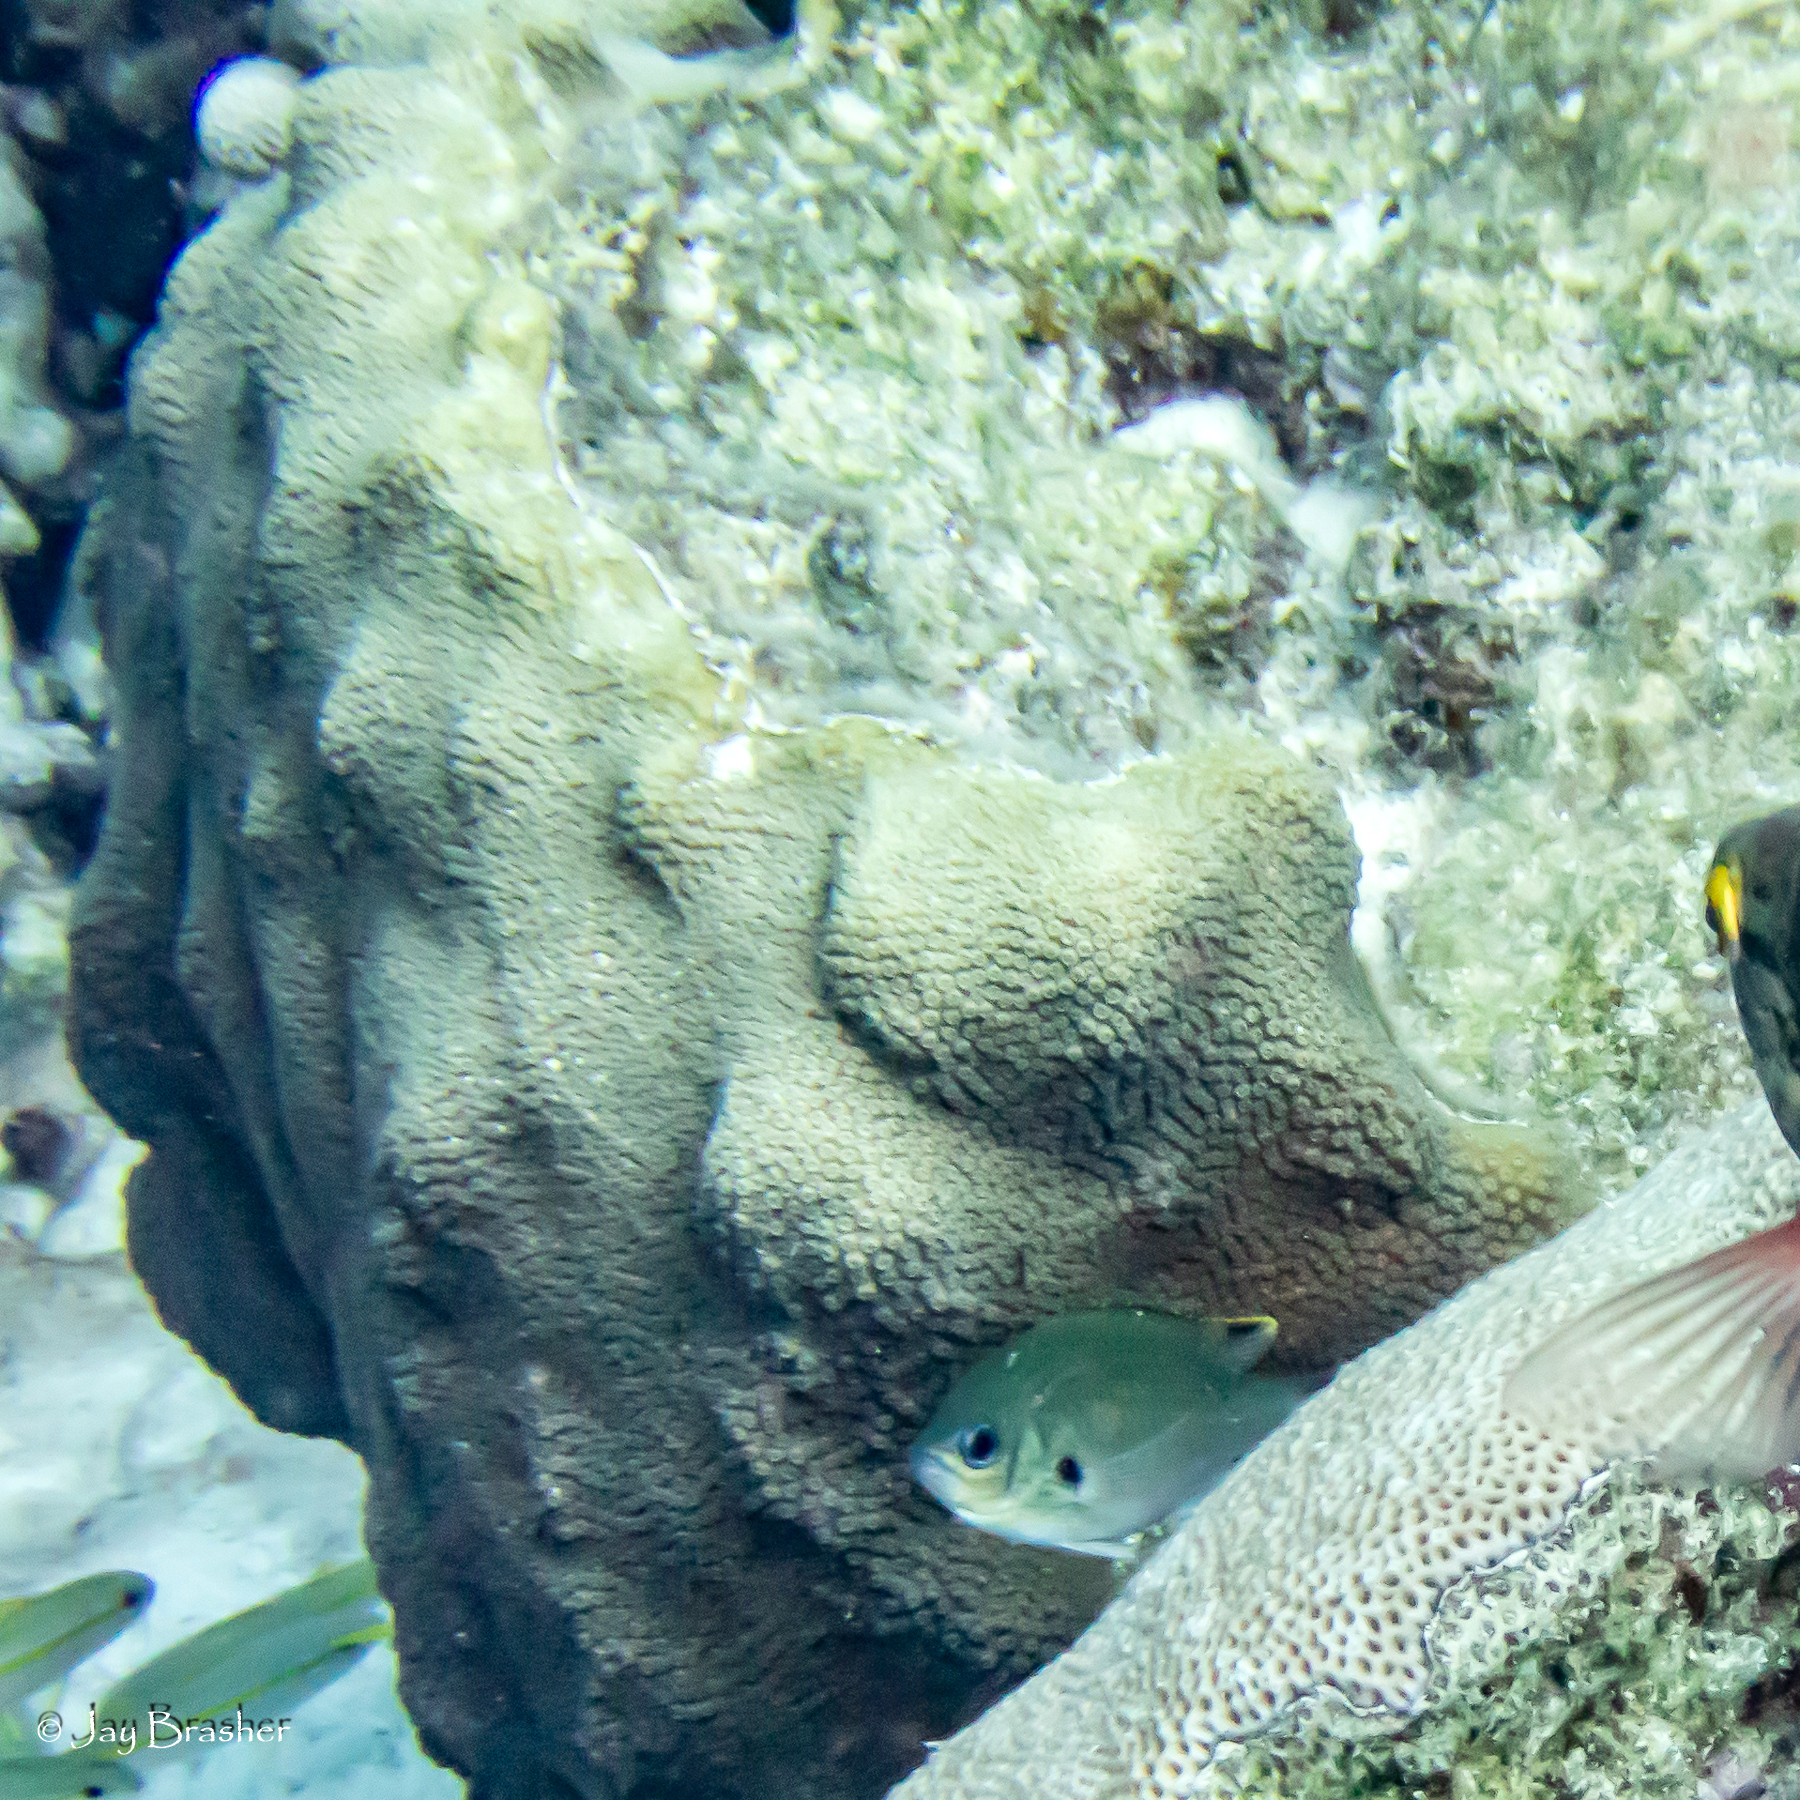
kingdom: Animalia
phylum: Chordata
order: Perciformes
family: Pomacentridae
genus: Chromis
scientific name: Chromis multilineata
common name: Brown chromis
